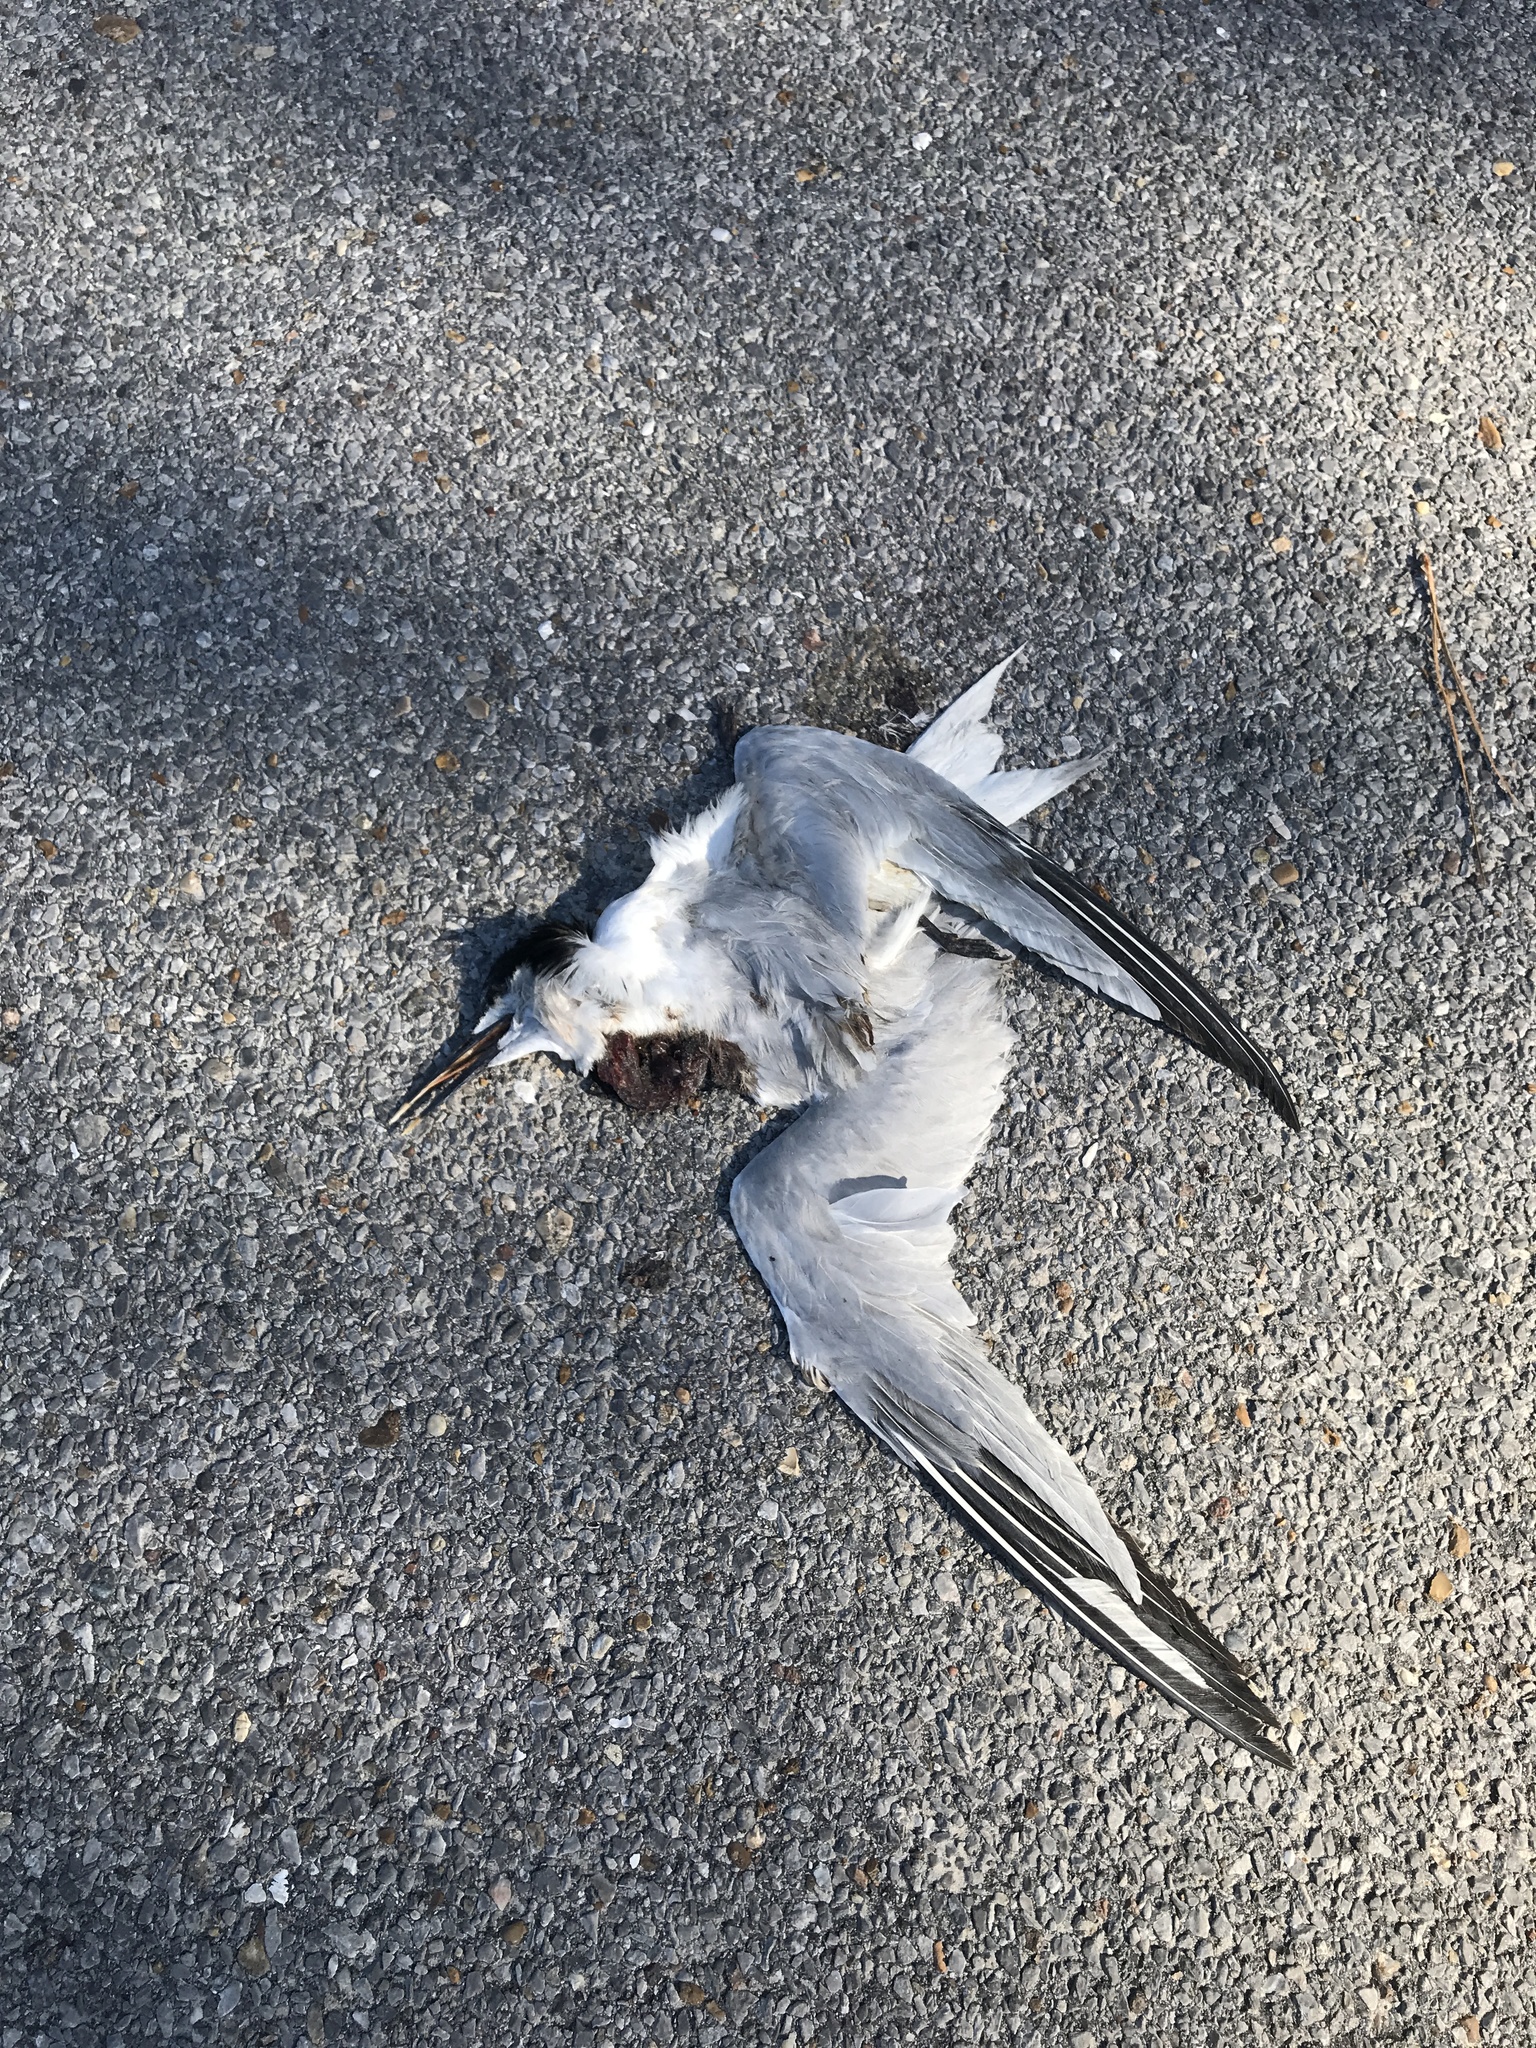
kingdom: Animalia
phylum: Chordata
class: Aves
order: Charadriiformes
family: Laridae
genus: Thalasseus
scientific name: Thalasseus sandvicensis
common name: Sandwich tern
